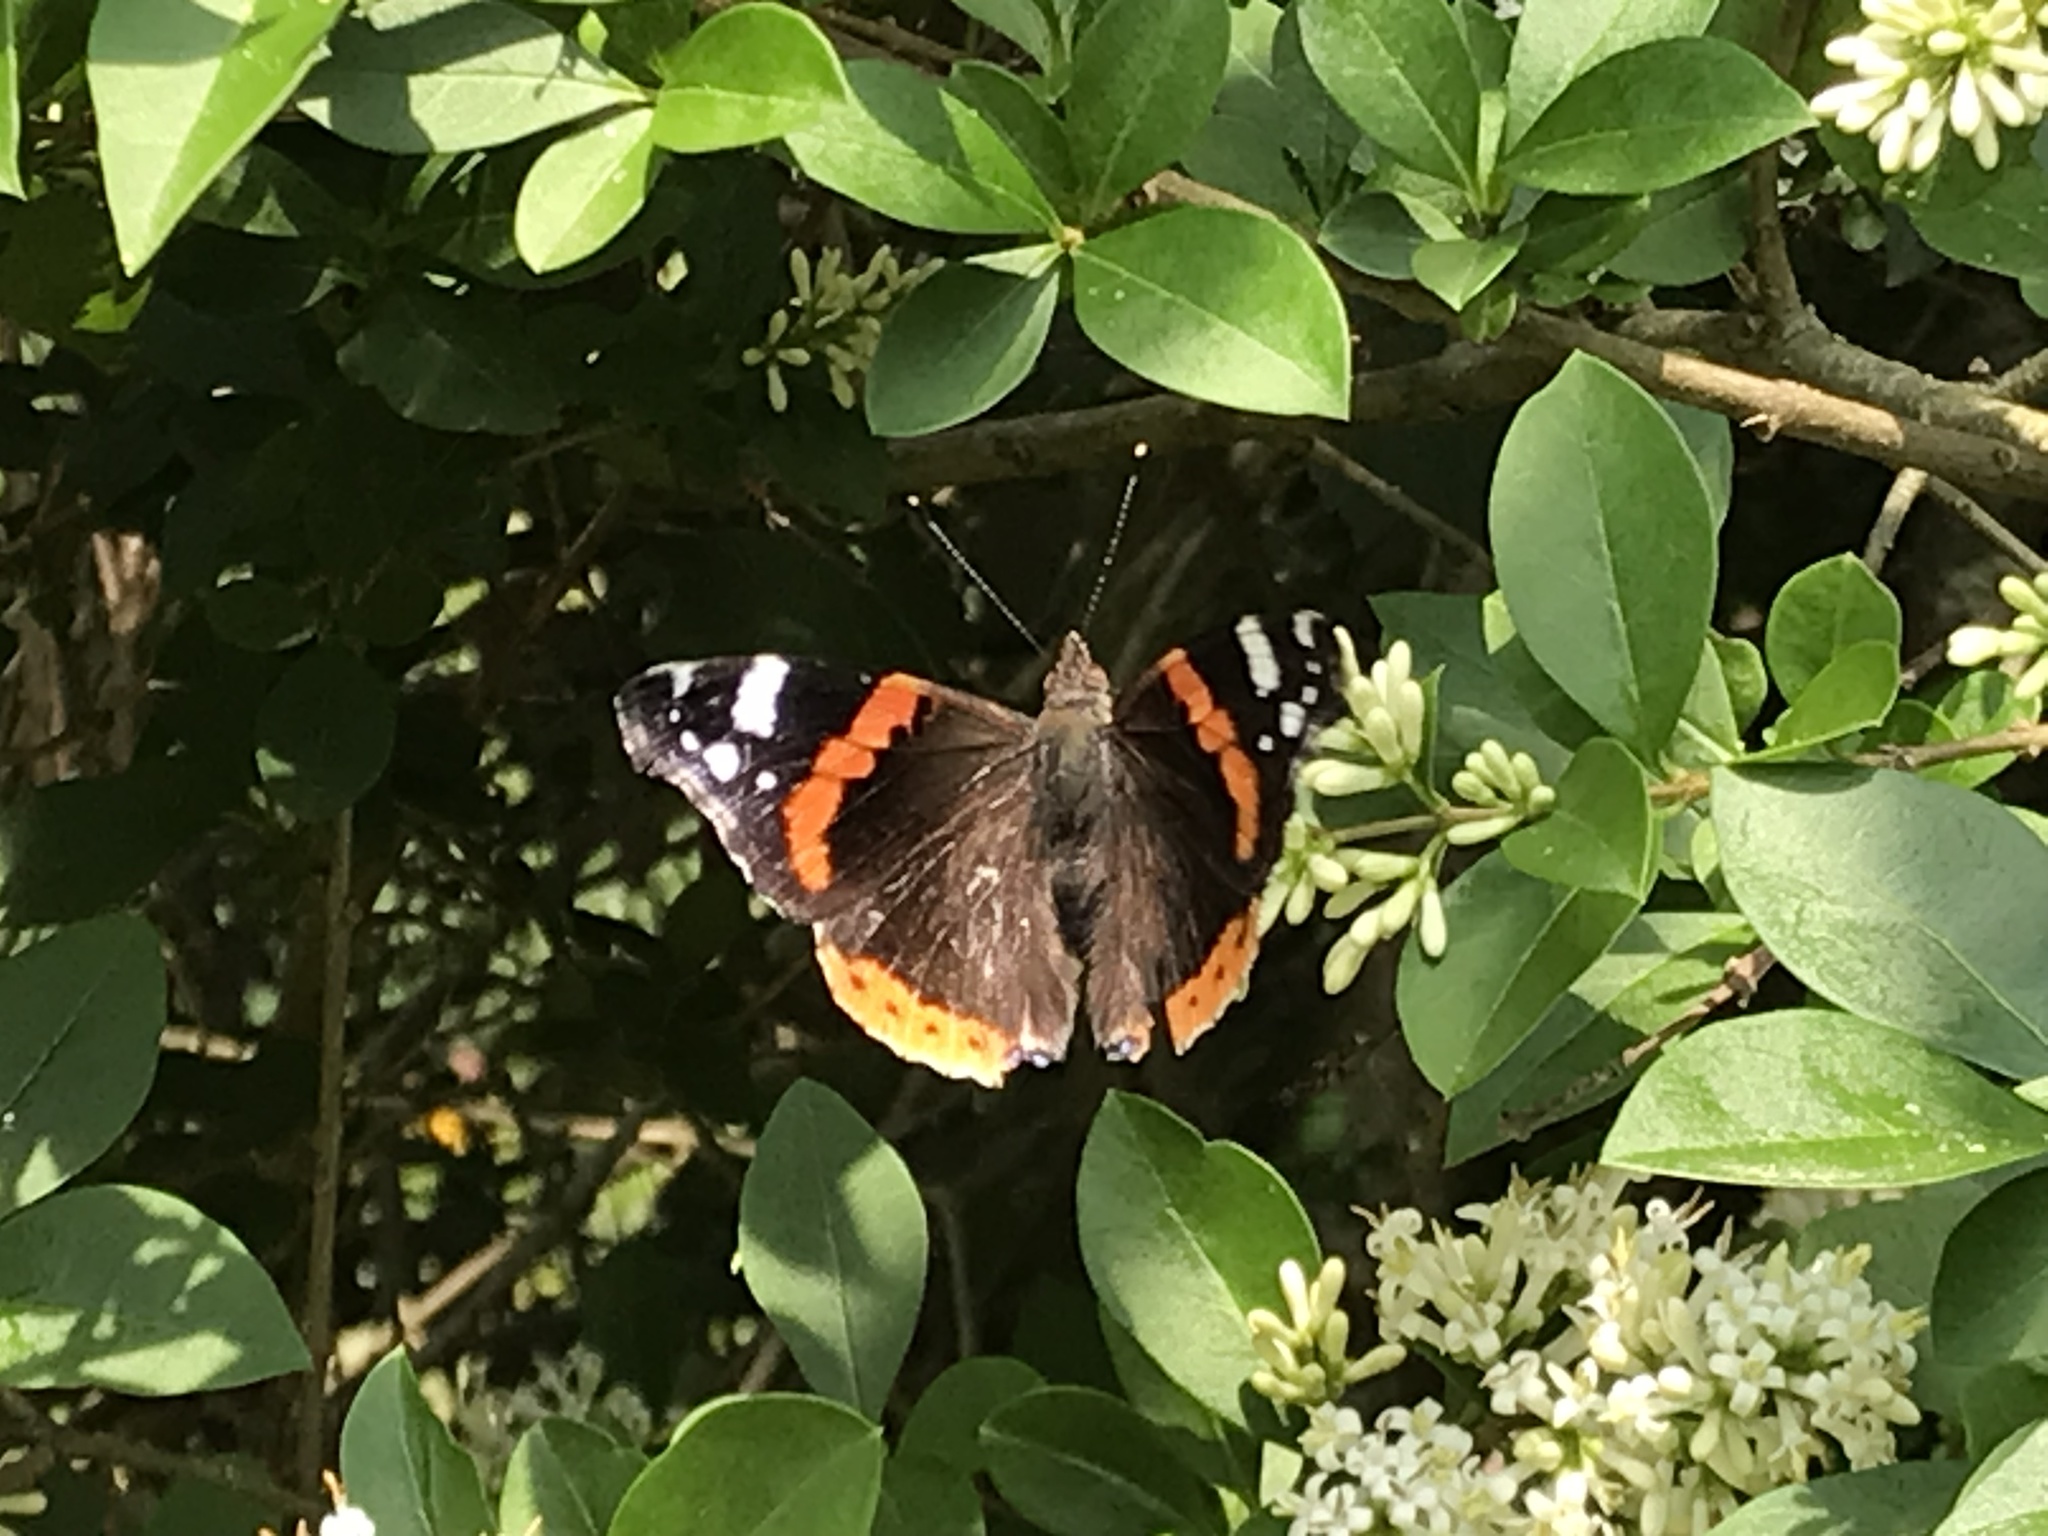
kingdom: Animalia
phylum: Arthropoda
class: Insecta
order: Lepidoptera
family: Nymphalidae
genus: Vanessa
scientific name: Vanessa atalanta
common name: Red admiral
